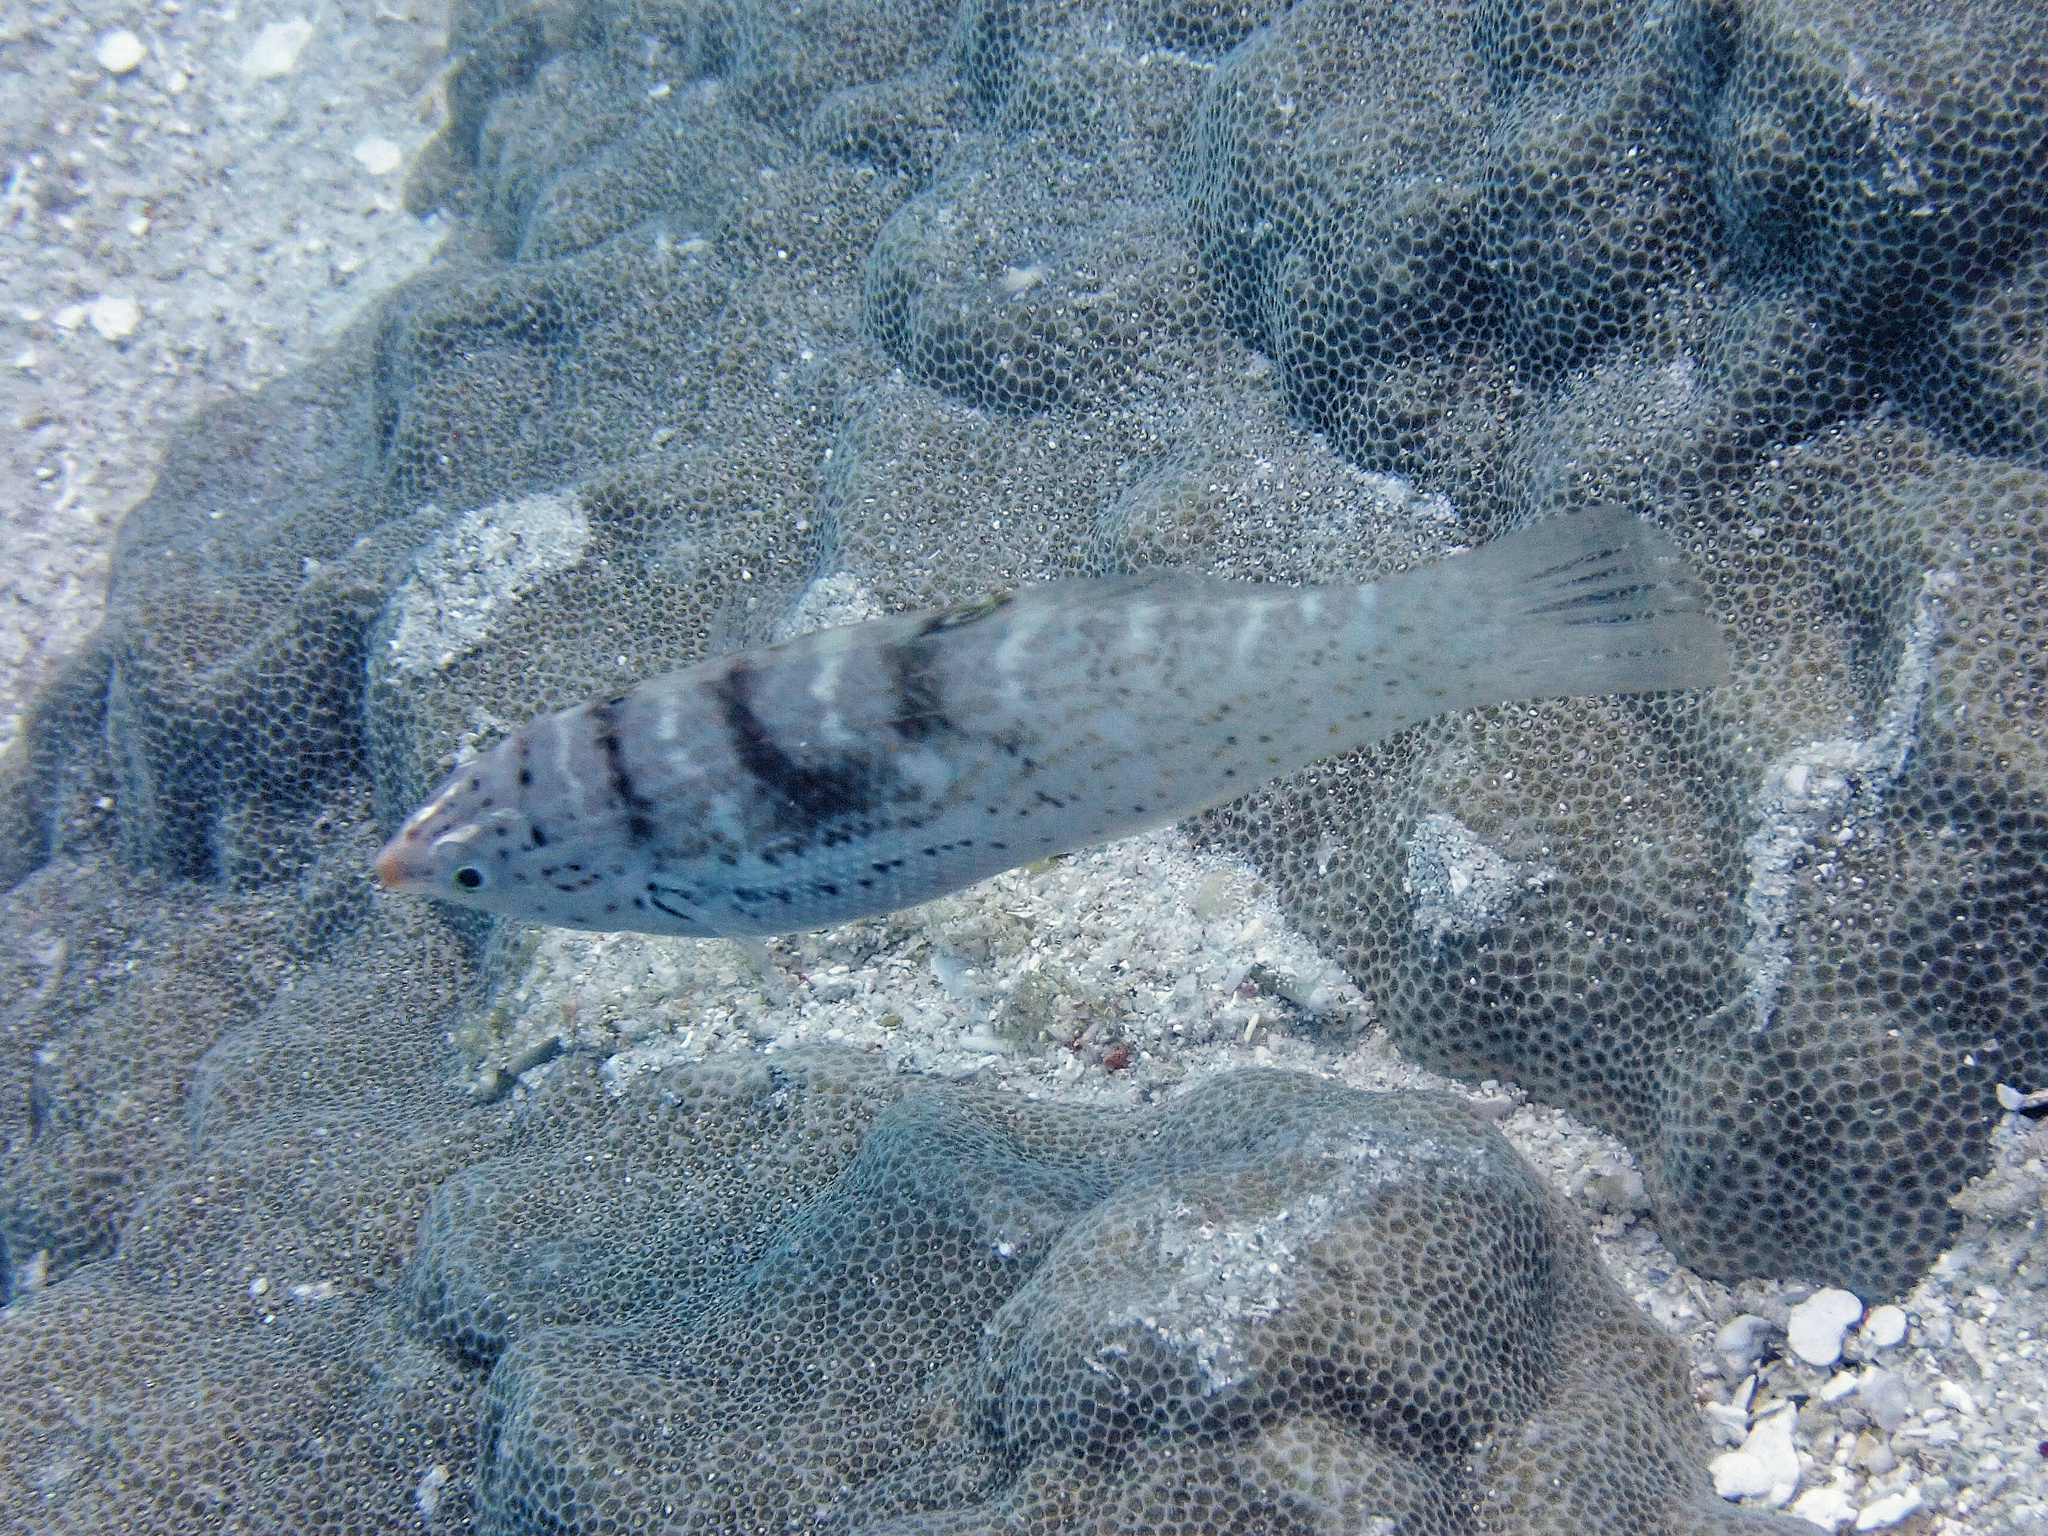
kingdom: Animalia
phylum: Chordata
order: Perciformes
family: Labridae
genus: Coris
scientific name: Coris batuensis
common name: Batu coris
